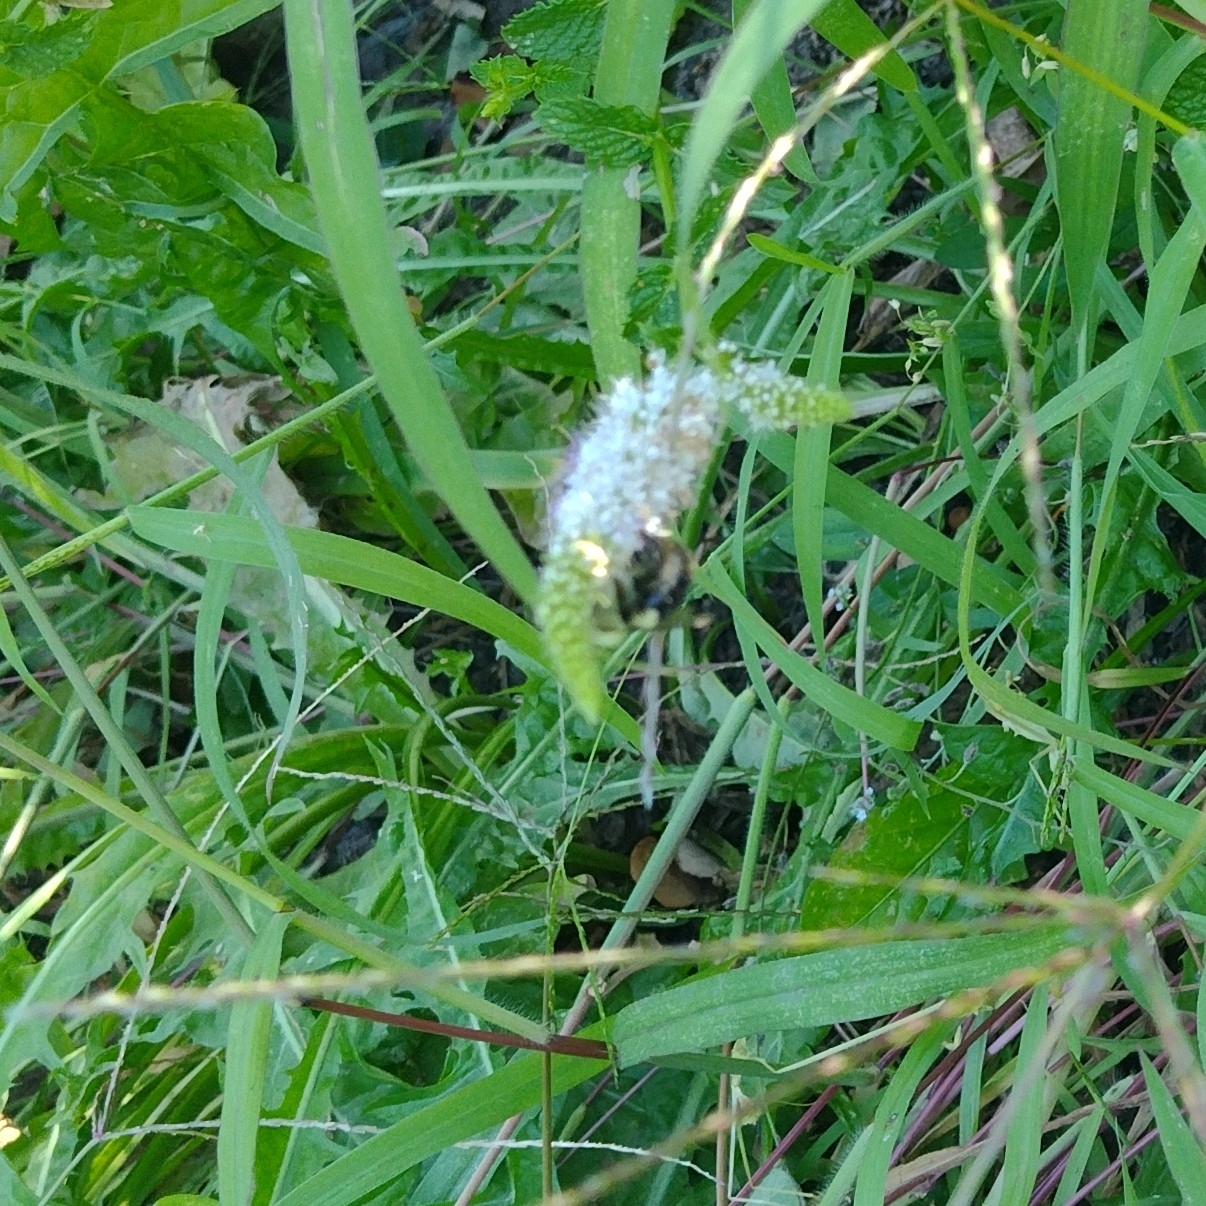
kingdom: Animalia
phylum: Arthropoda
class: Insecta
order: Hymenoptera
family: Apidae
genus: Bombus
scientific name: Bombus impatiens
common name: Common eastern bumble bee
